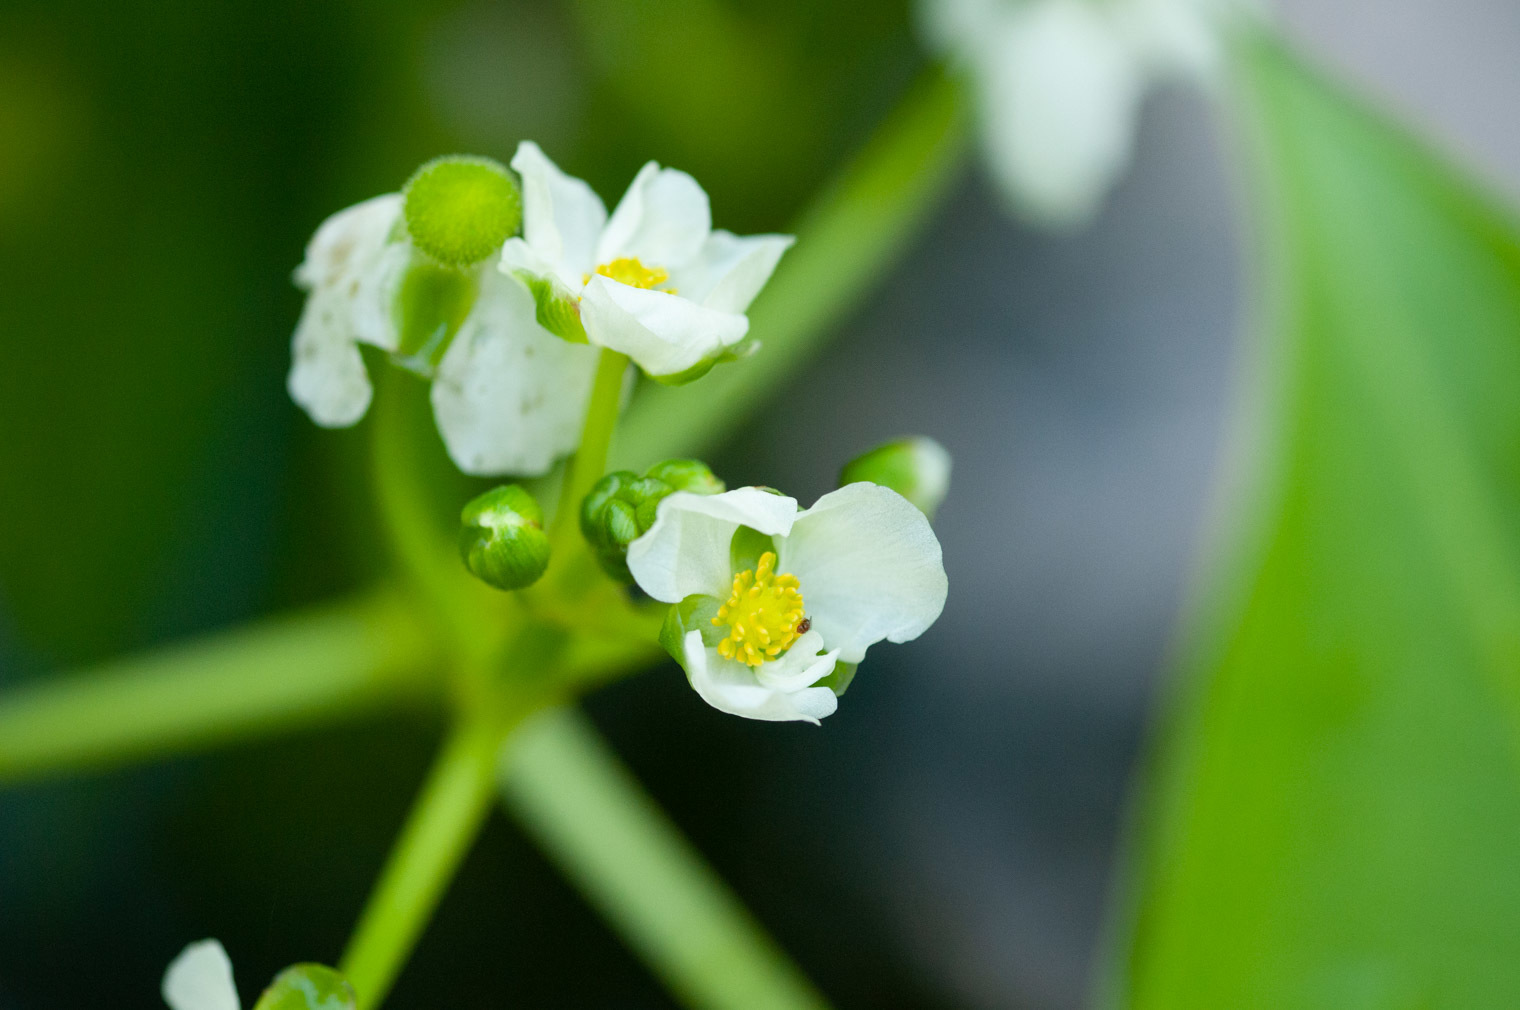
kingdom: Plantae
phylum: Tracheophyta
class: Liliopsida
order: Alismatales
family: Alismataceae
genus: Sagittaria
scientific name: Sagittaria platyphylla
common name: Broad-leaf arrowhead
